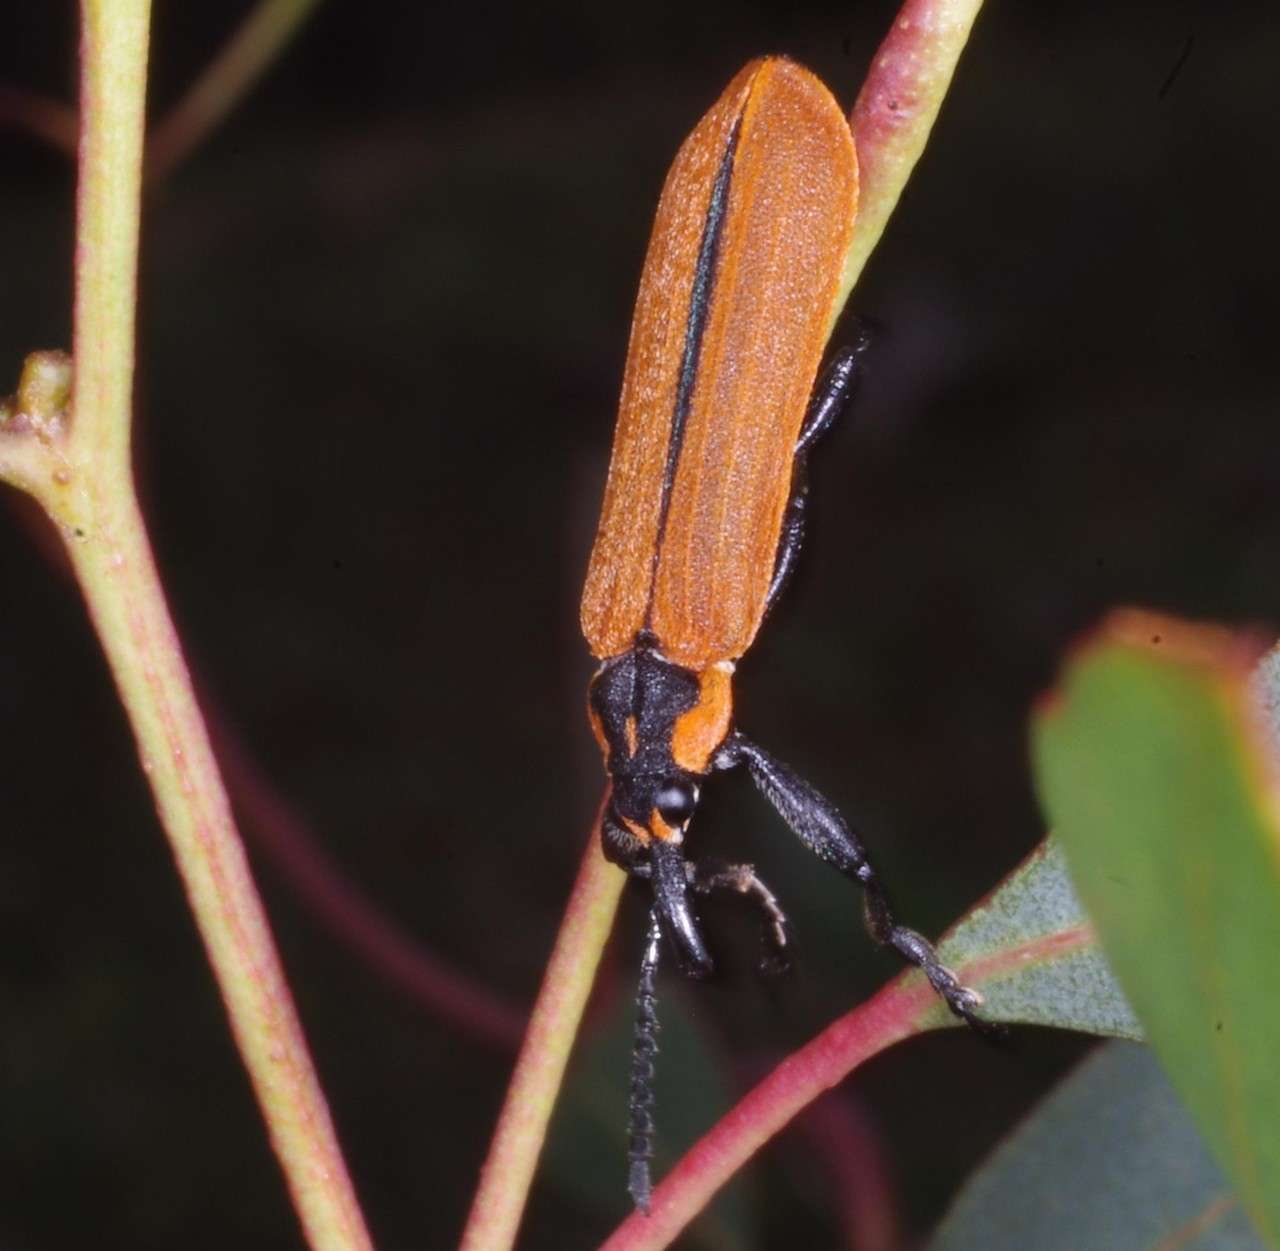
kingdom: Animalia
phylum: Arthropoda
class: Insecta
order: Coleoptera
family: Belidae
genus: Rhinotia
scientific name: Rhinotia haemoptera
